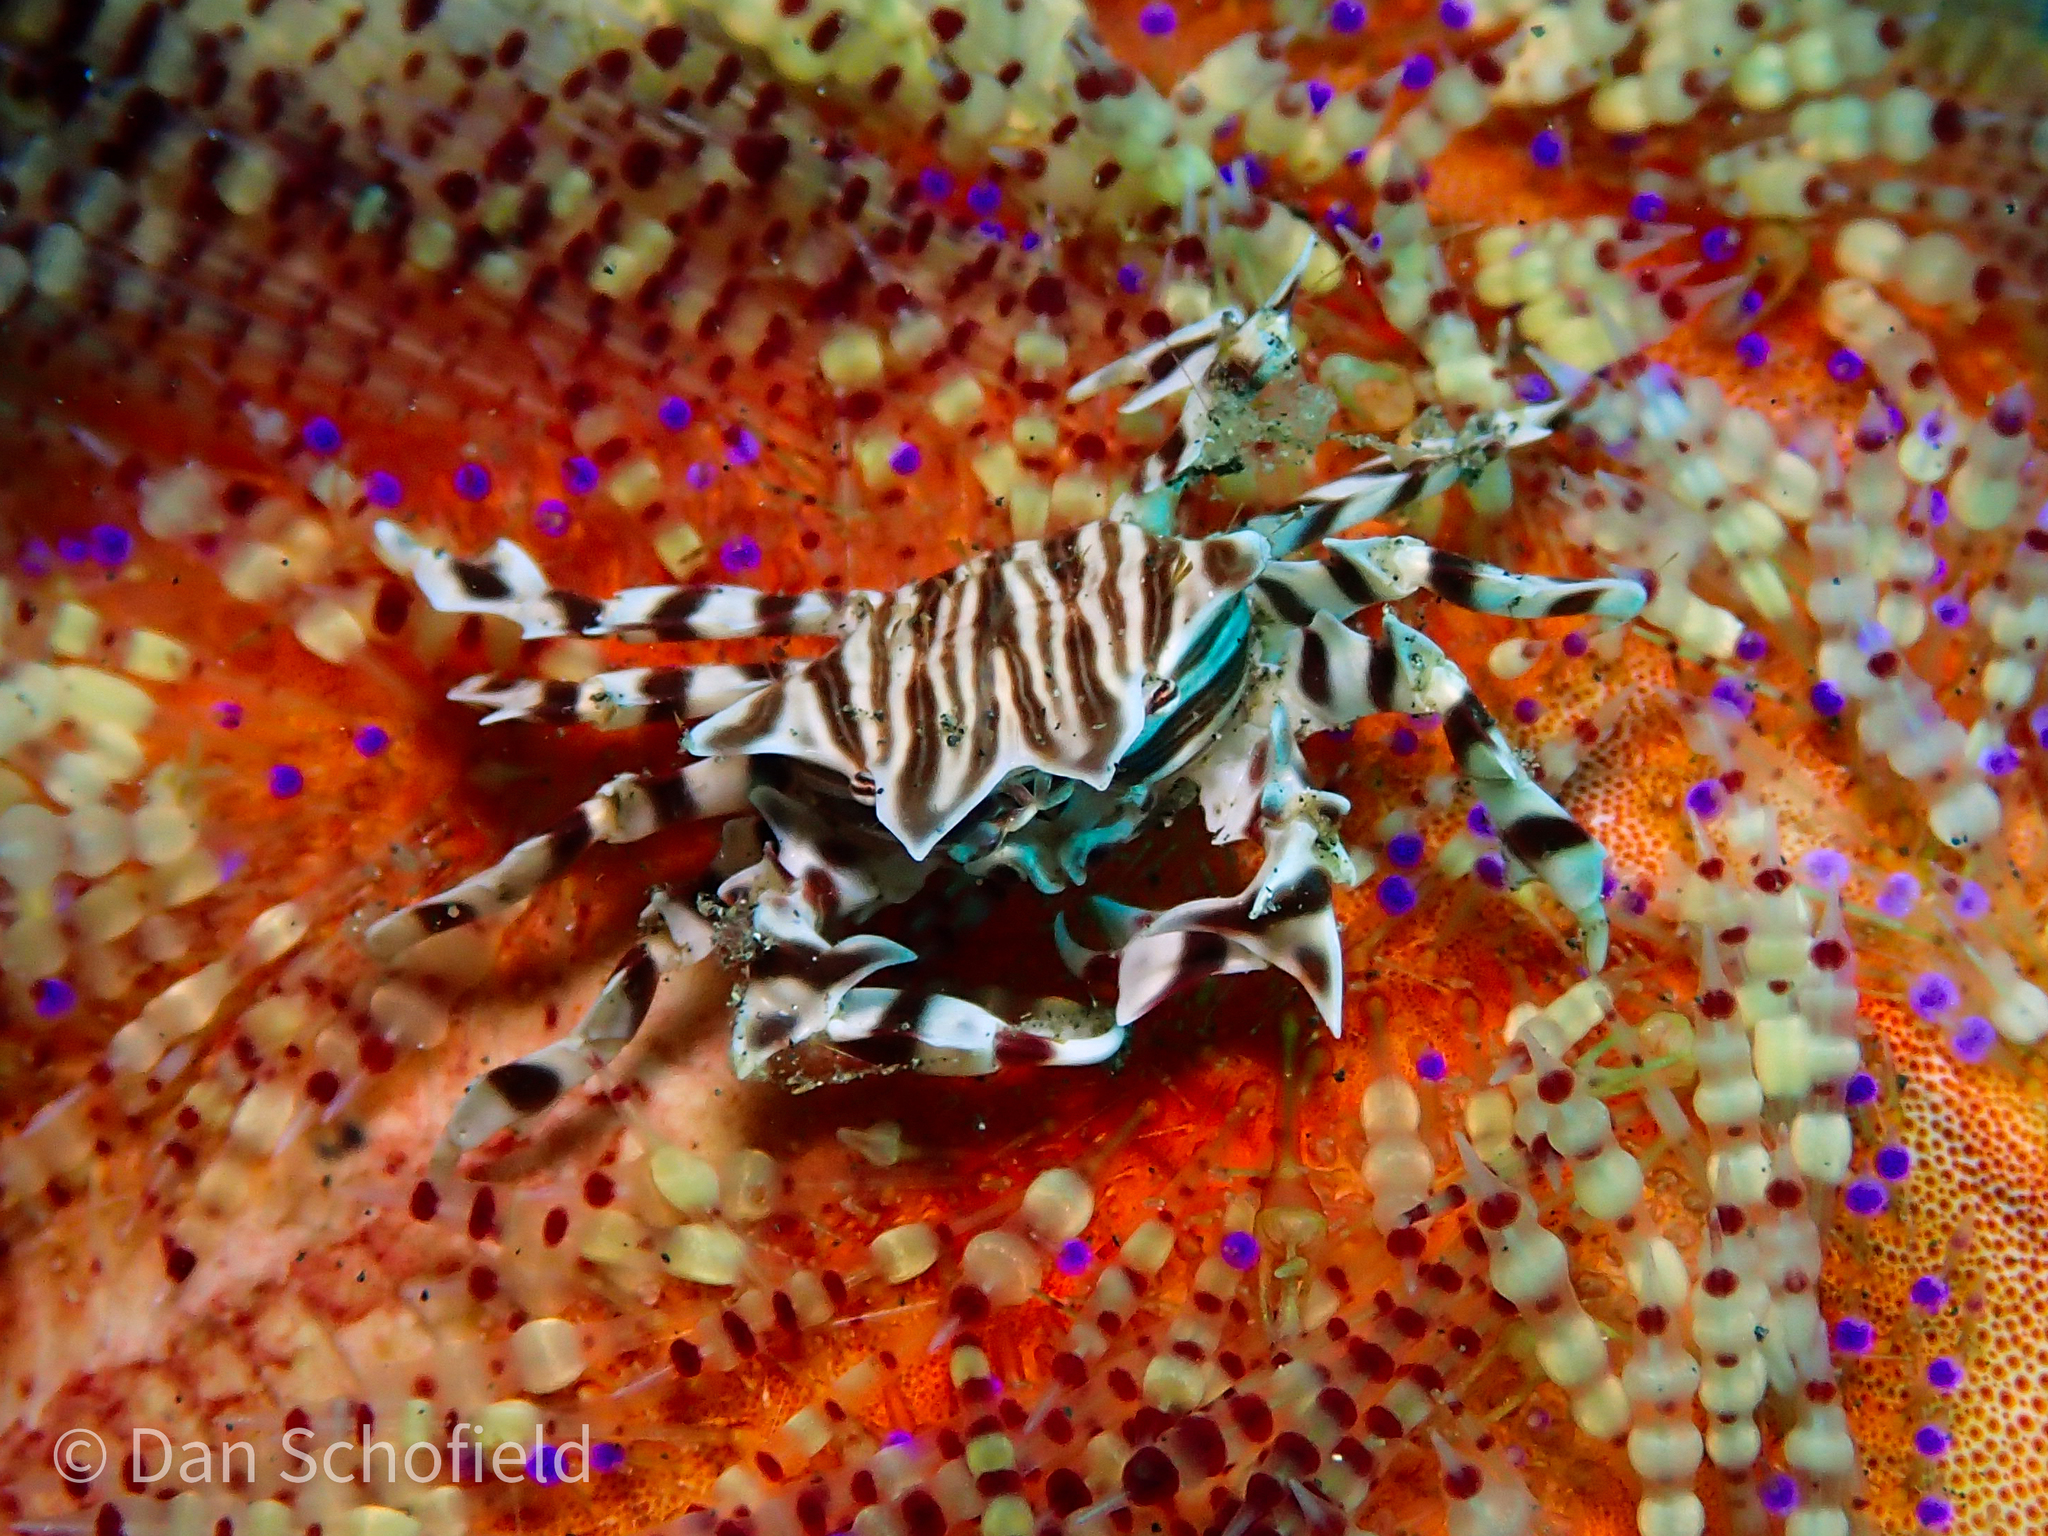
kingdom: Animalia
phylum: Arthropoda
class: Malacostraca
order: Decapoda
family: Pilumnidae
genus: Zebrida
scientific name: Zebrida adamsii
